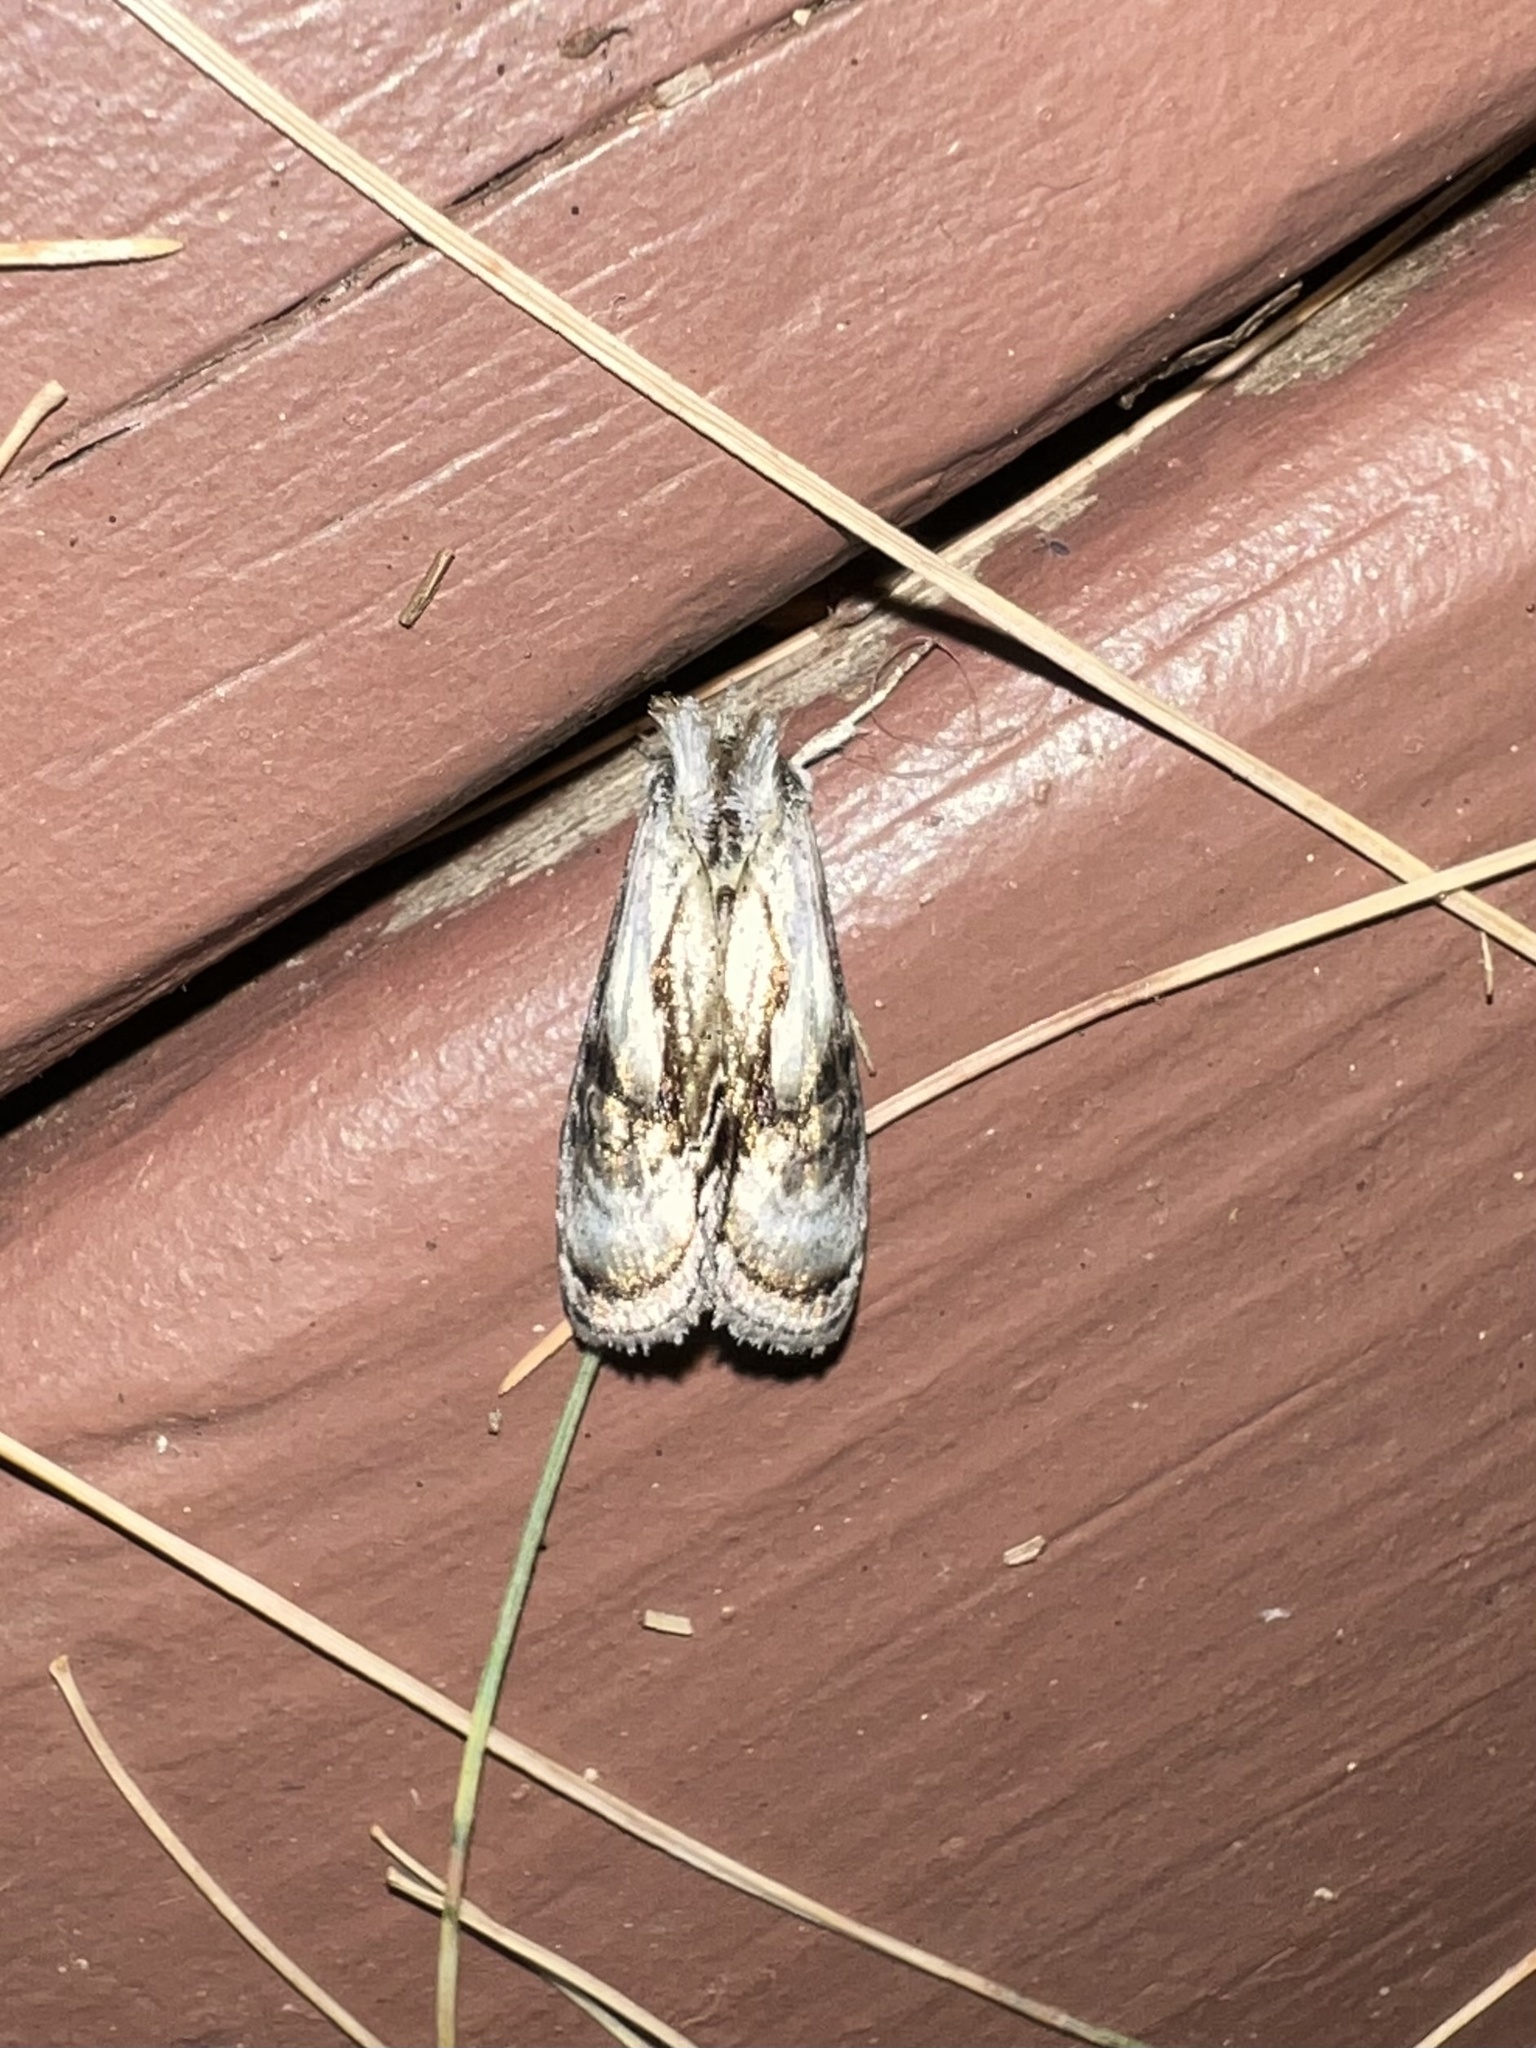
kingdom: Animalia
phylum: Arthropoda
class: Insecta
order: Lepidoptera
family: Noctuidae
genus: Chrysanympha
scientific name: Chrysanympha formosa
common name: Formosa looper moth
